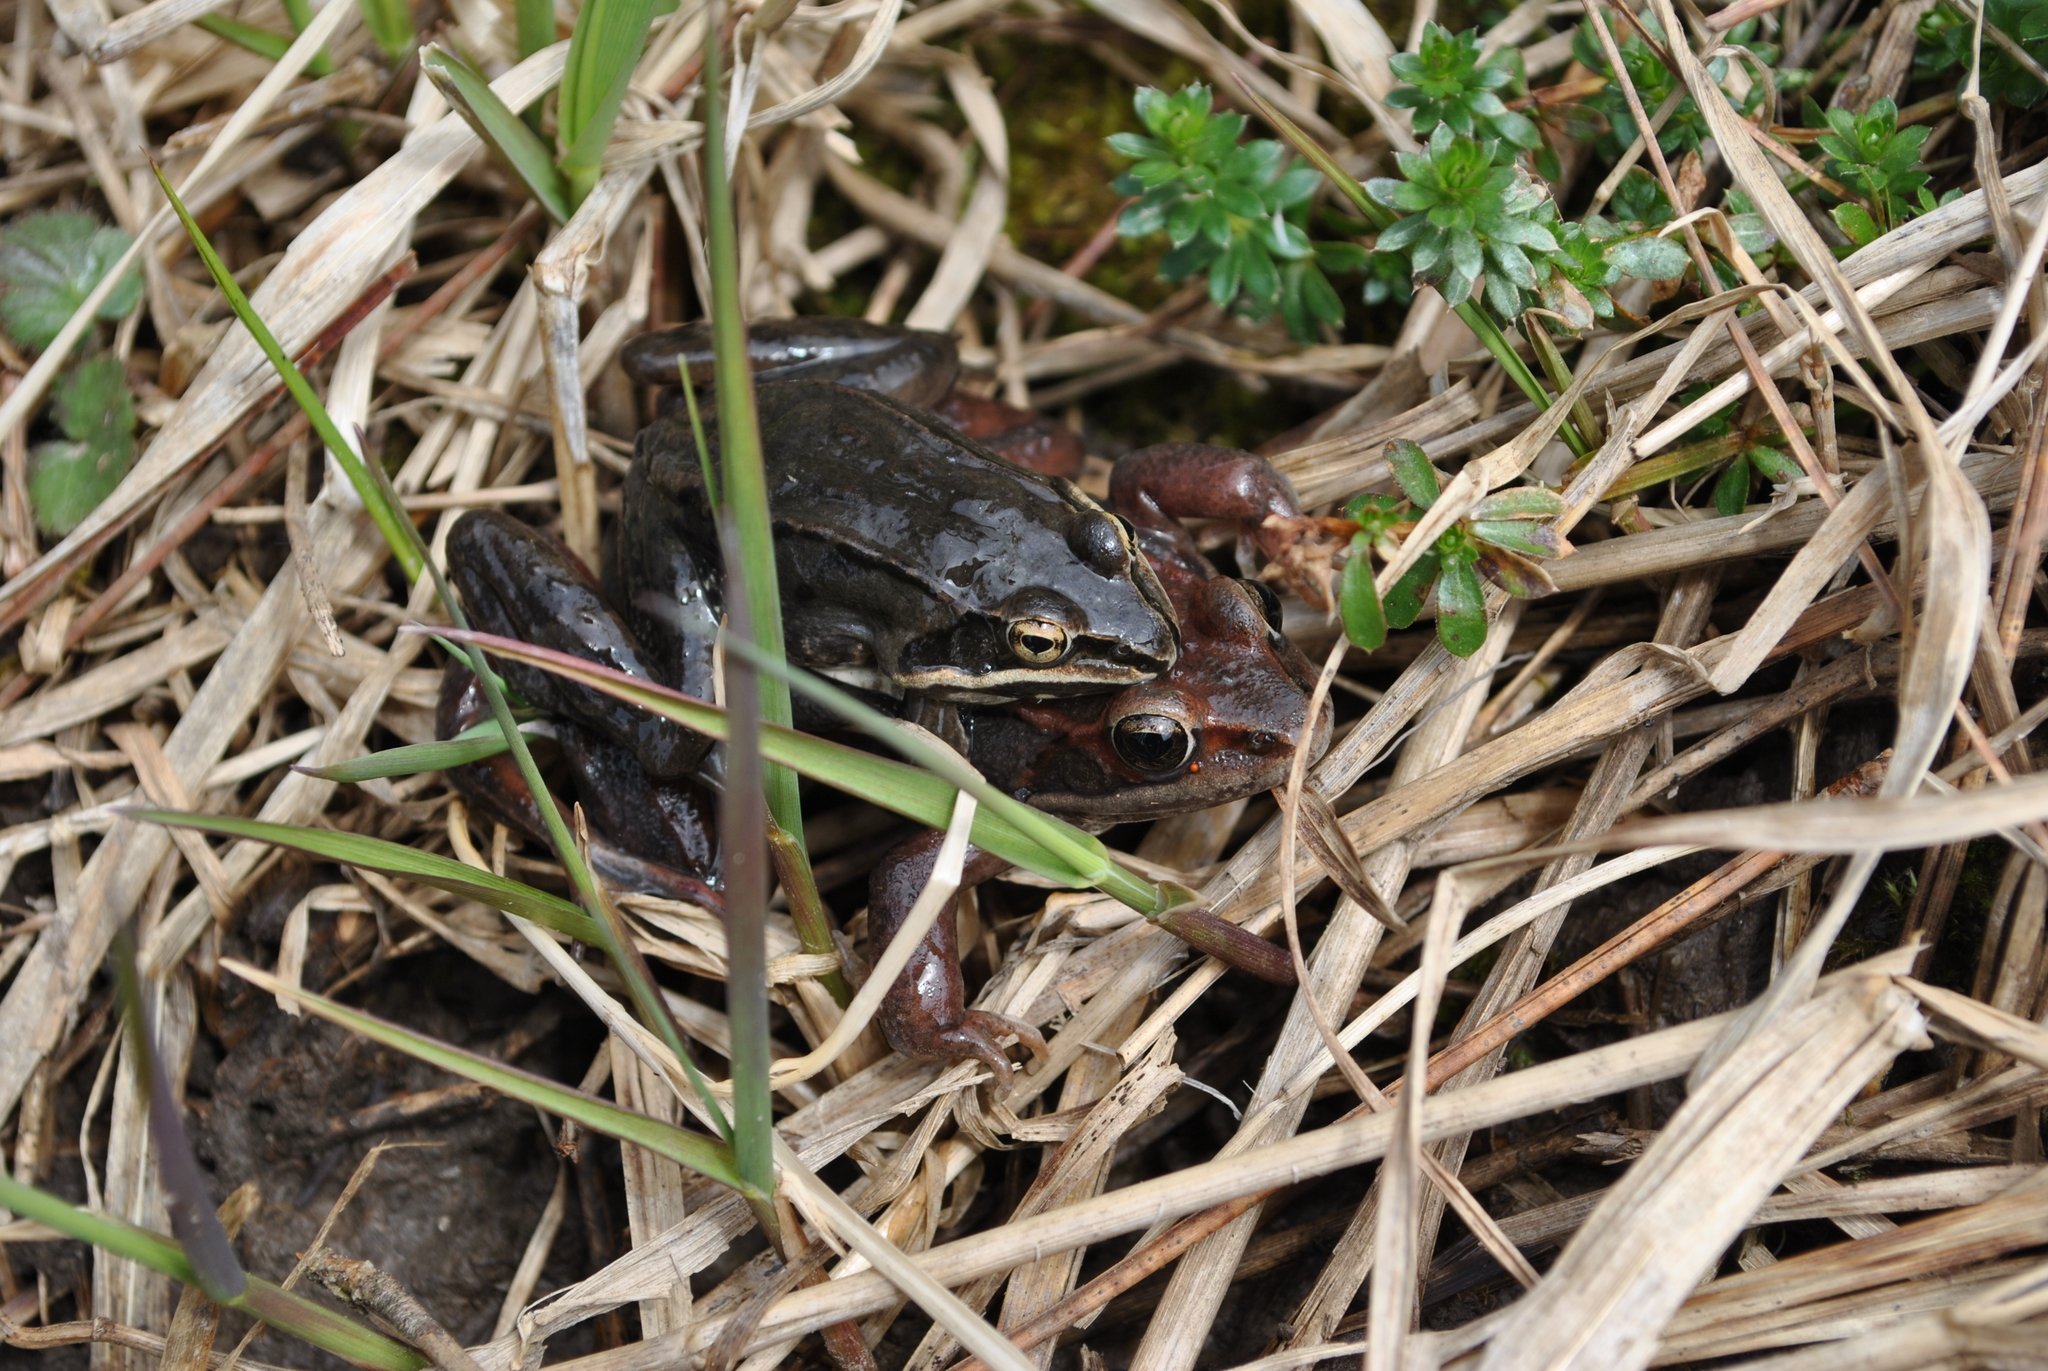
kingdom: Animalia
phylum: Chordata
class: Amphibia
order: Anura
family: Ranidae
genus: Lithobates
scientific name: Lithobates sylvaticus
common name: Wood frog
